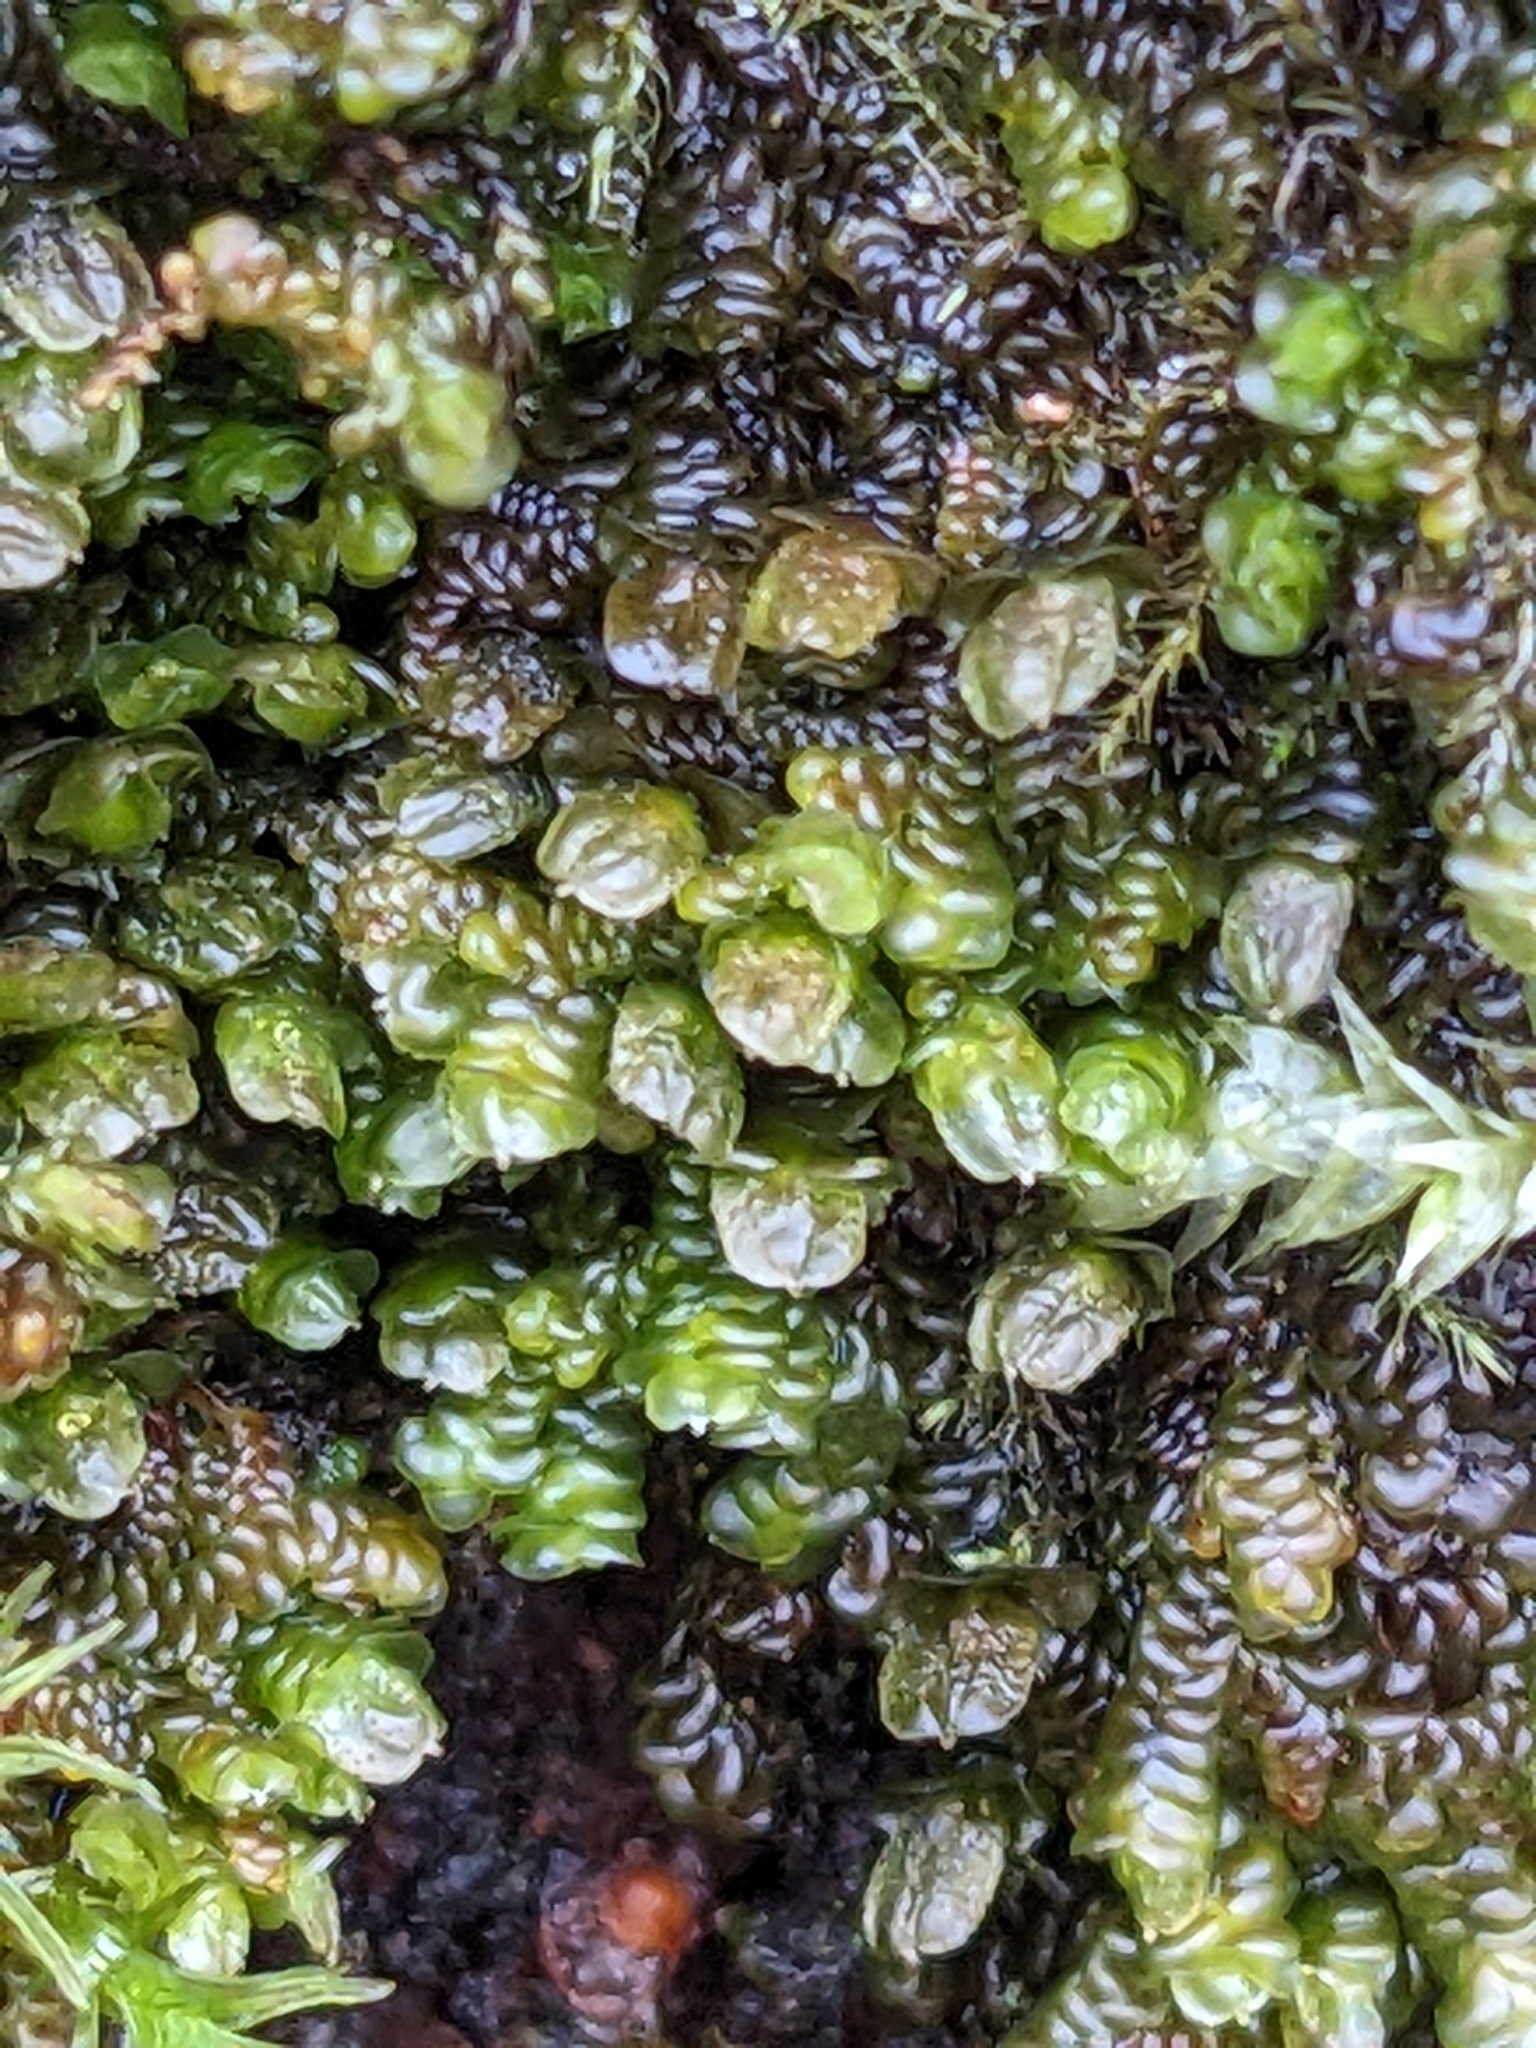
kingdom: Plantae
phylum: Marchantiophyta
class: Jungermanniopsida
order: Porellales
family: Frullaniaceae
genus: Frullania
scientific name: Frullania dilatata
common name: Dilated scalewort
